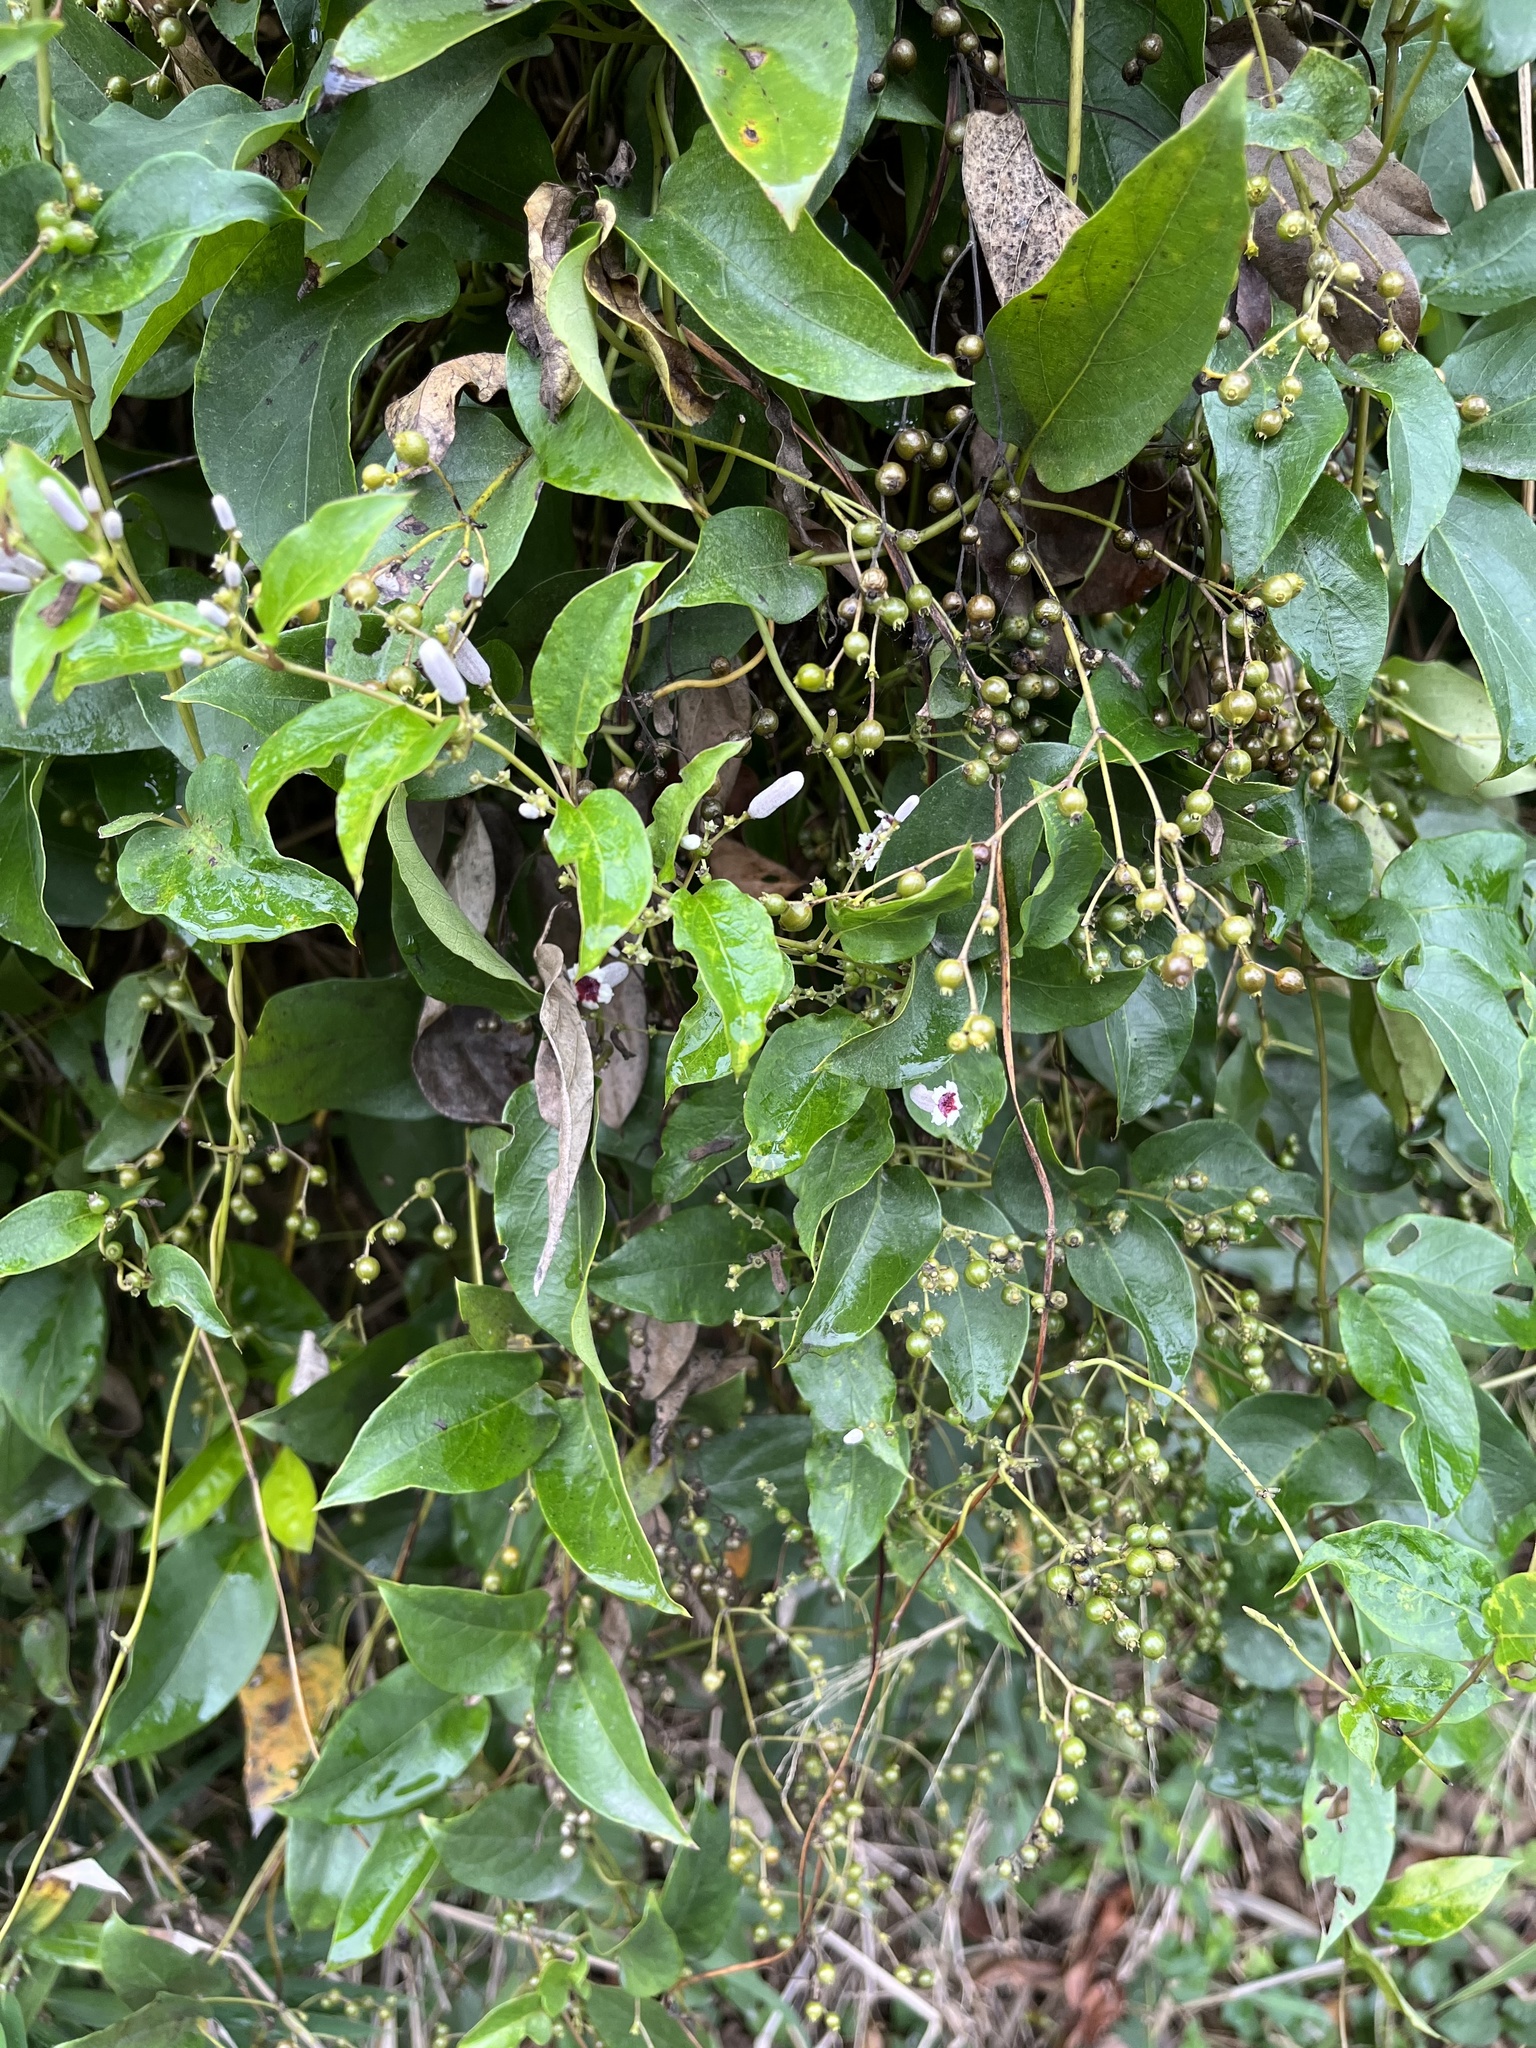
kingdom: Plantae
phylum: Tracheophyta
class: Magnoliopsida
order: Gentianales
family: Rubiaceae
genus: Paederia
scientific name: Paederia foetida
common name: Stinkvine
